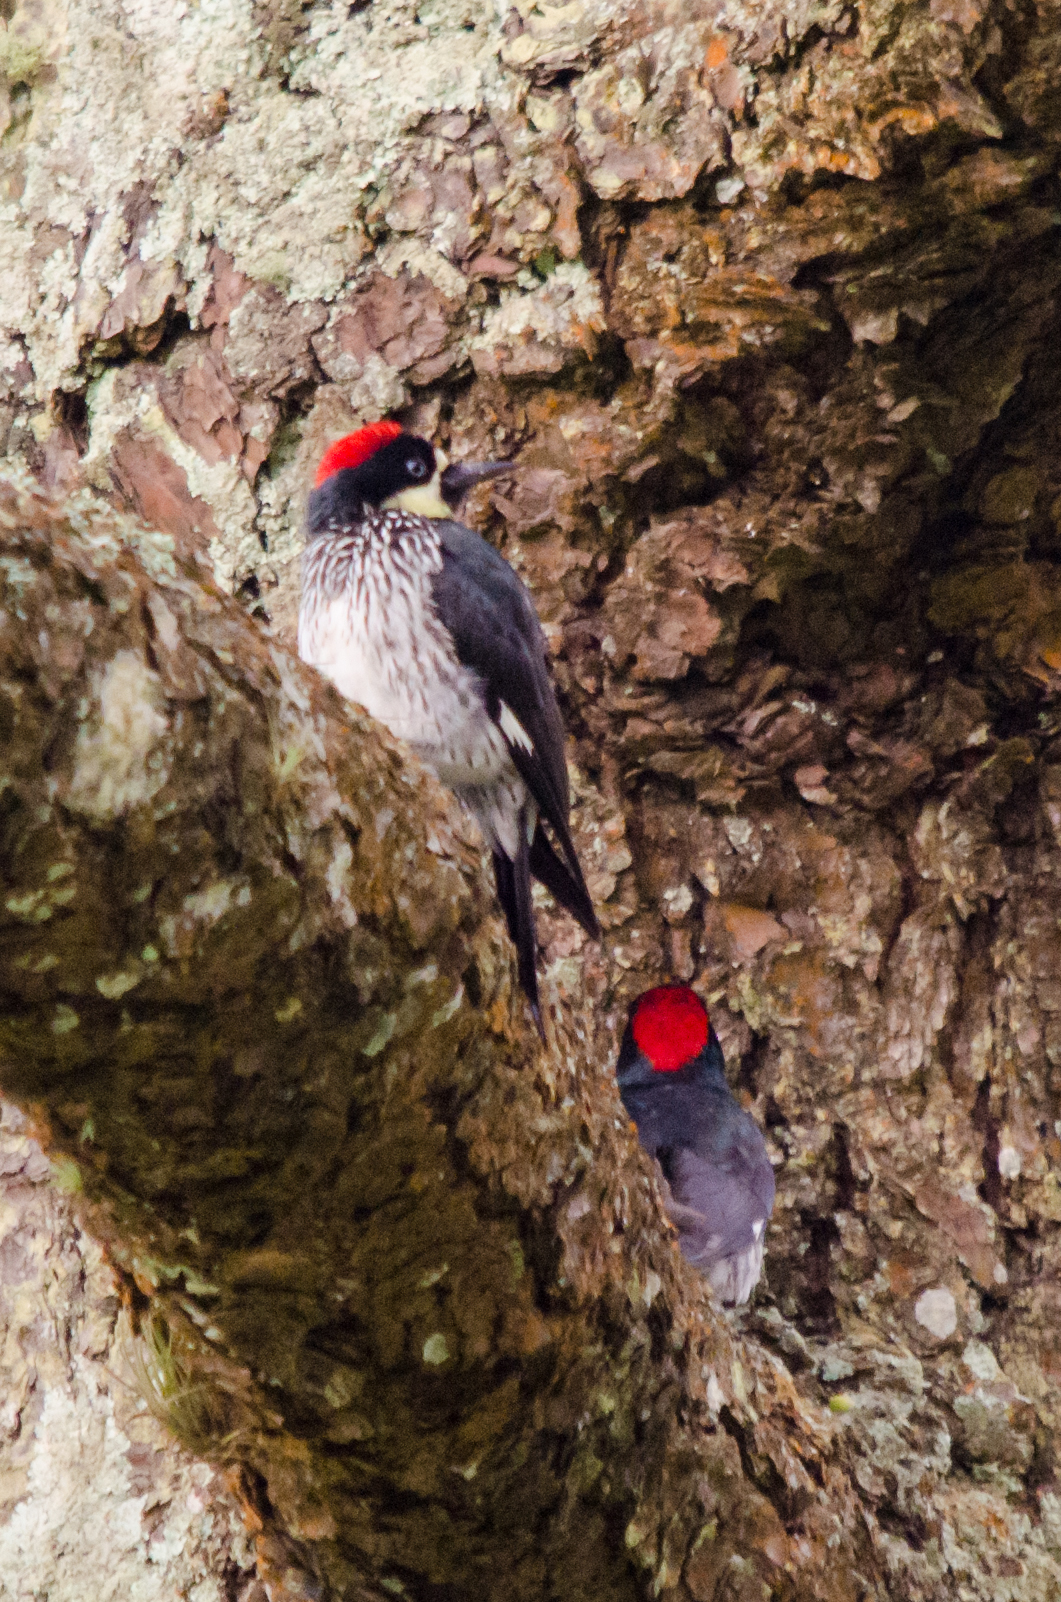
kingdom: Animalia
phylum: Chordata
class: Aves
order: Piciformes
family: Picidae
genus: Melanerpes
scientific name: Melanerpes formicivorus
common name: Acorn woodpecker
